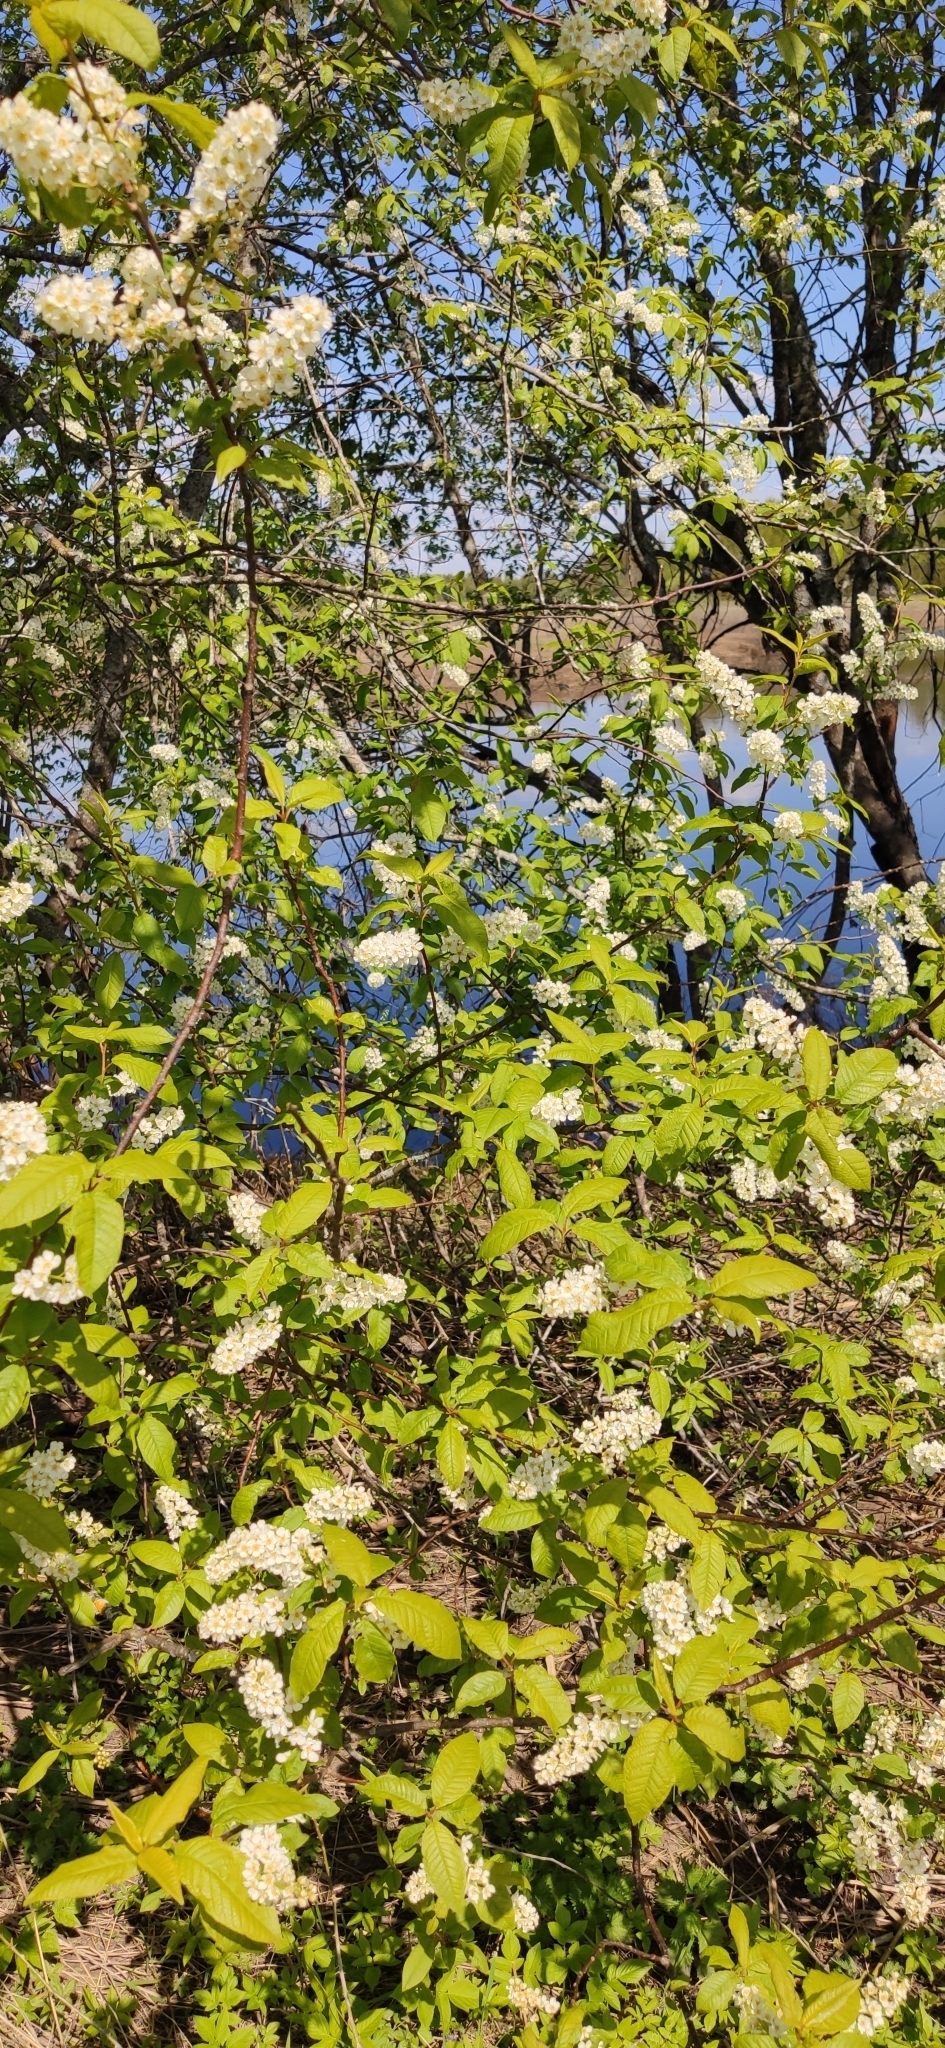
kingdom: Plantae
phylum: Tracheophyta
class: Magnoliopsida
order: Rosales
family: Rosaceae
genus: Prunus
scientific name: Prunus padus
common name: Bird cherry
